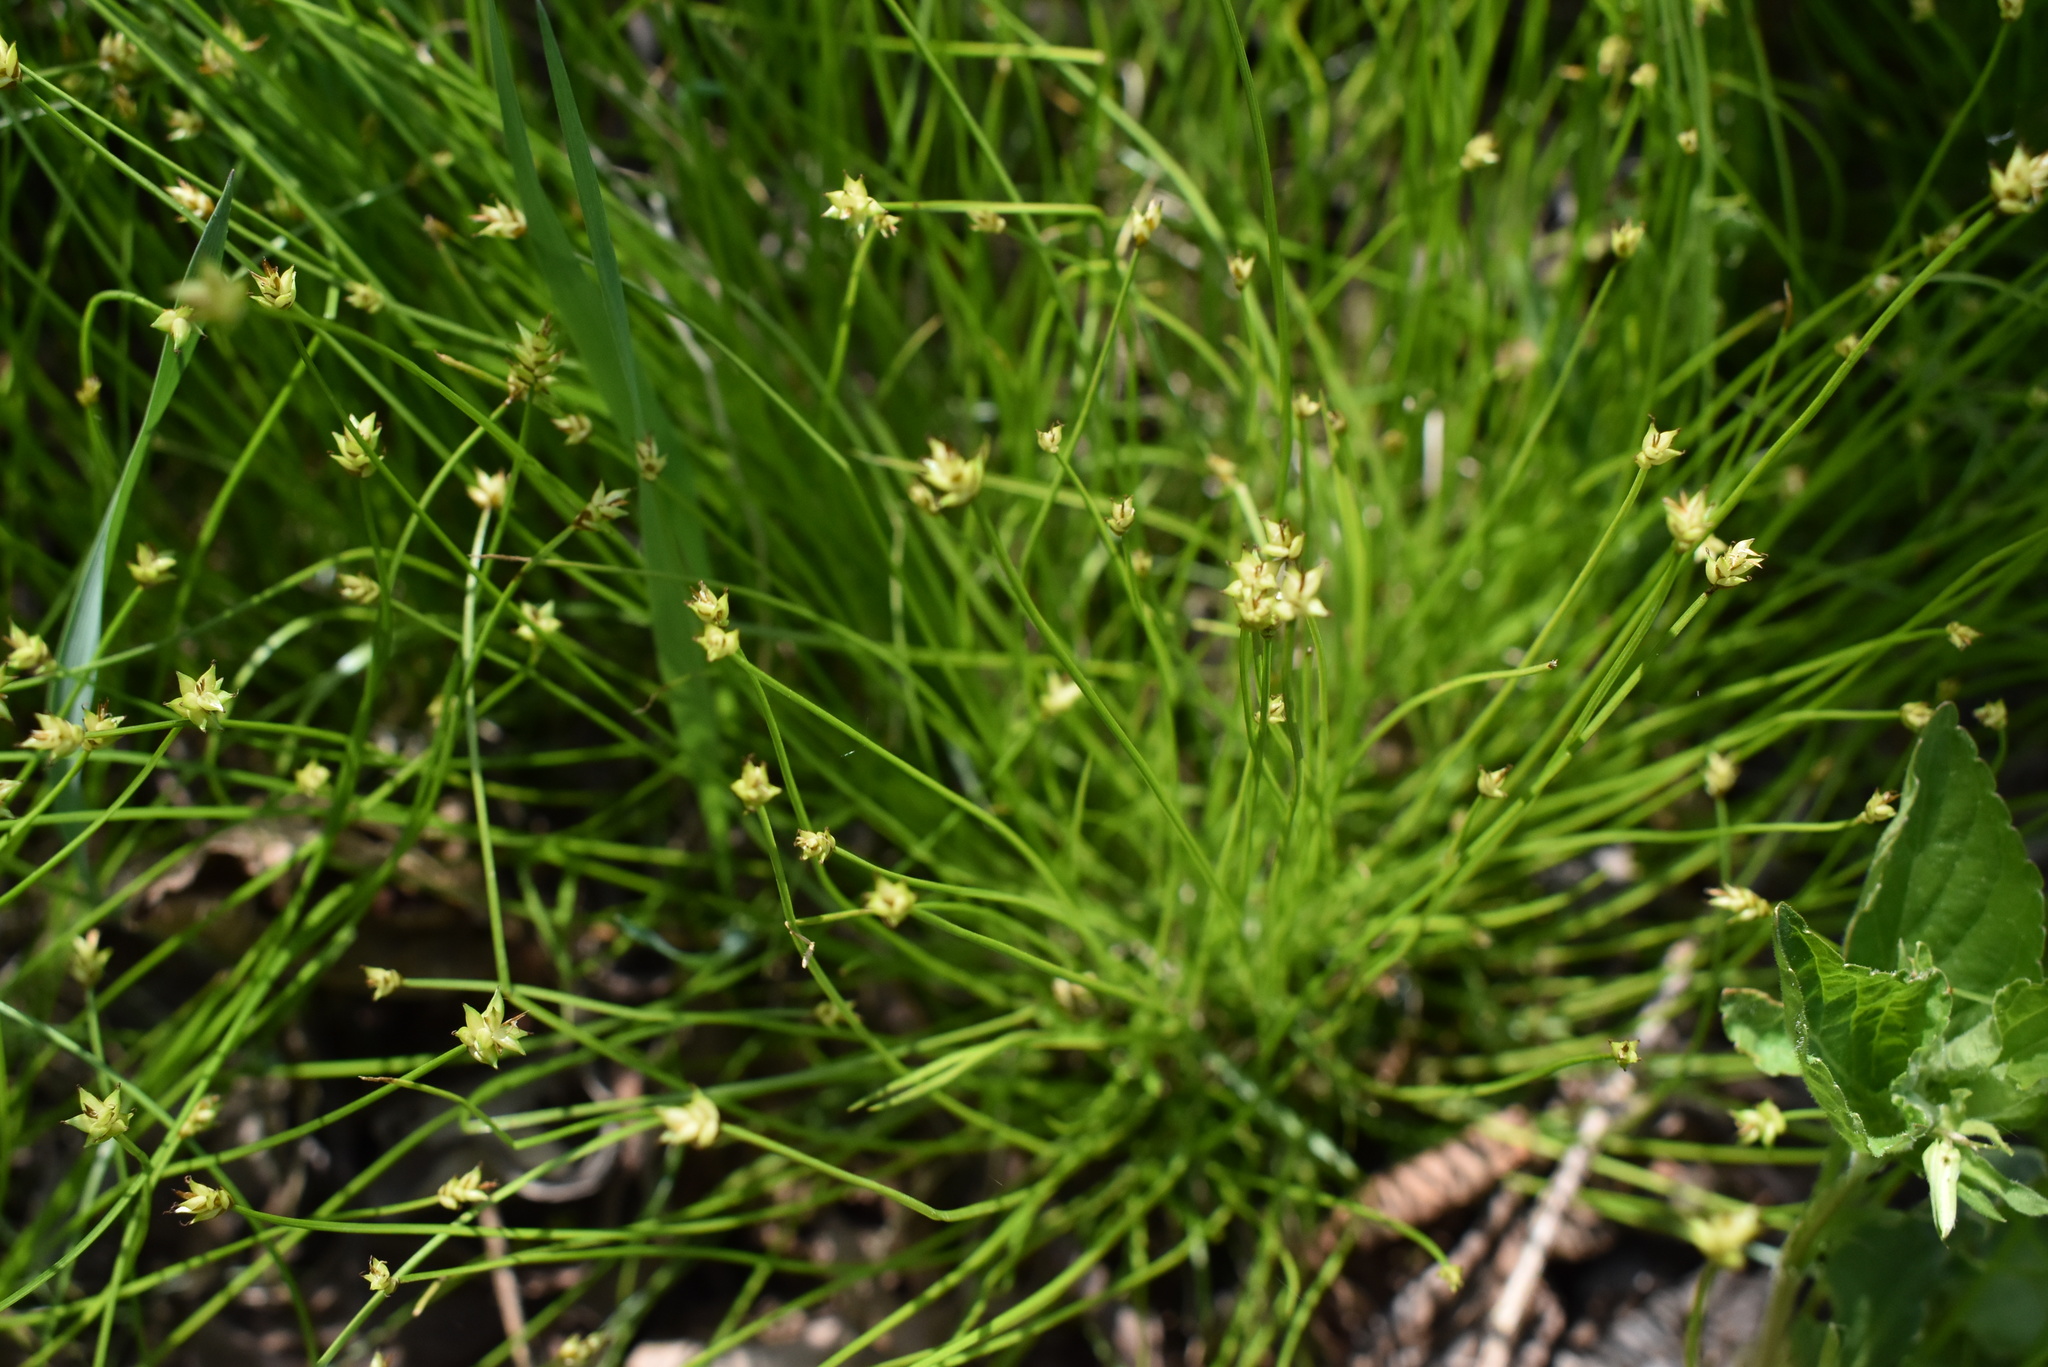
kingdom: Plantae
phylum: Tracheophyta
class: Liliopsida
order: Poales
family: Cyperaceae
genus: Carex
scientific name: Carex onoei
